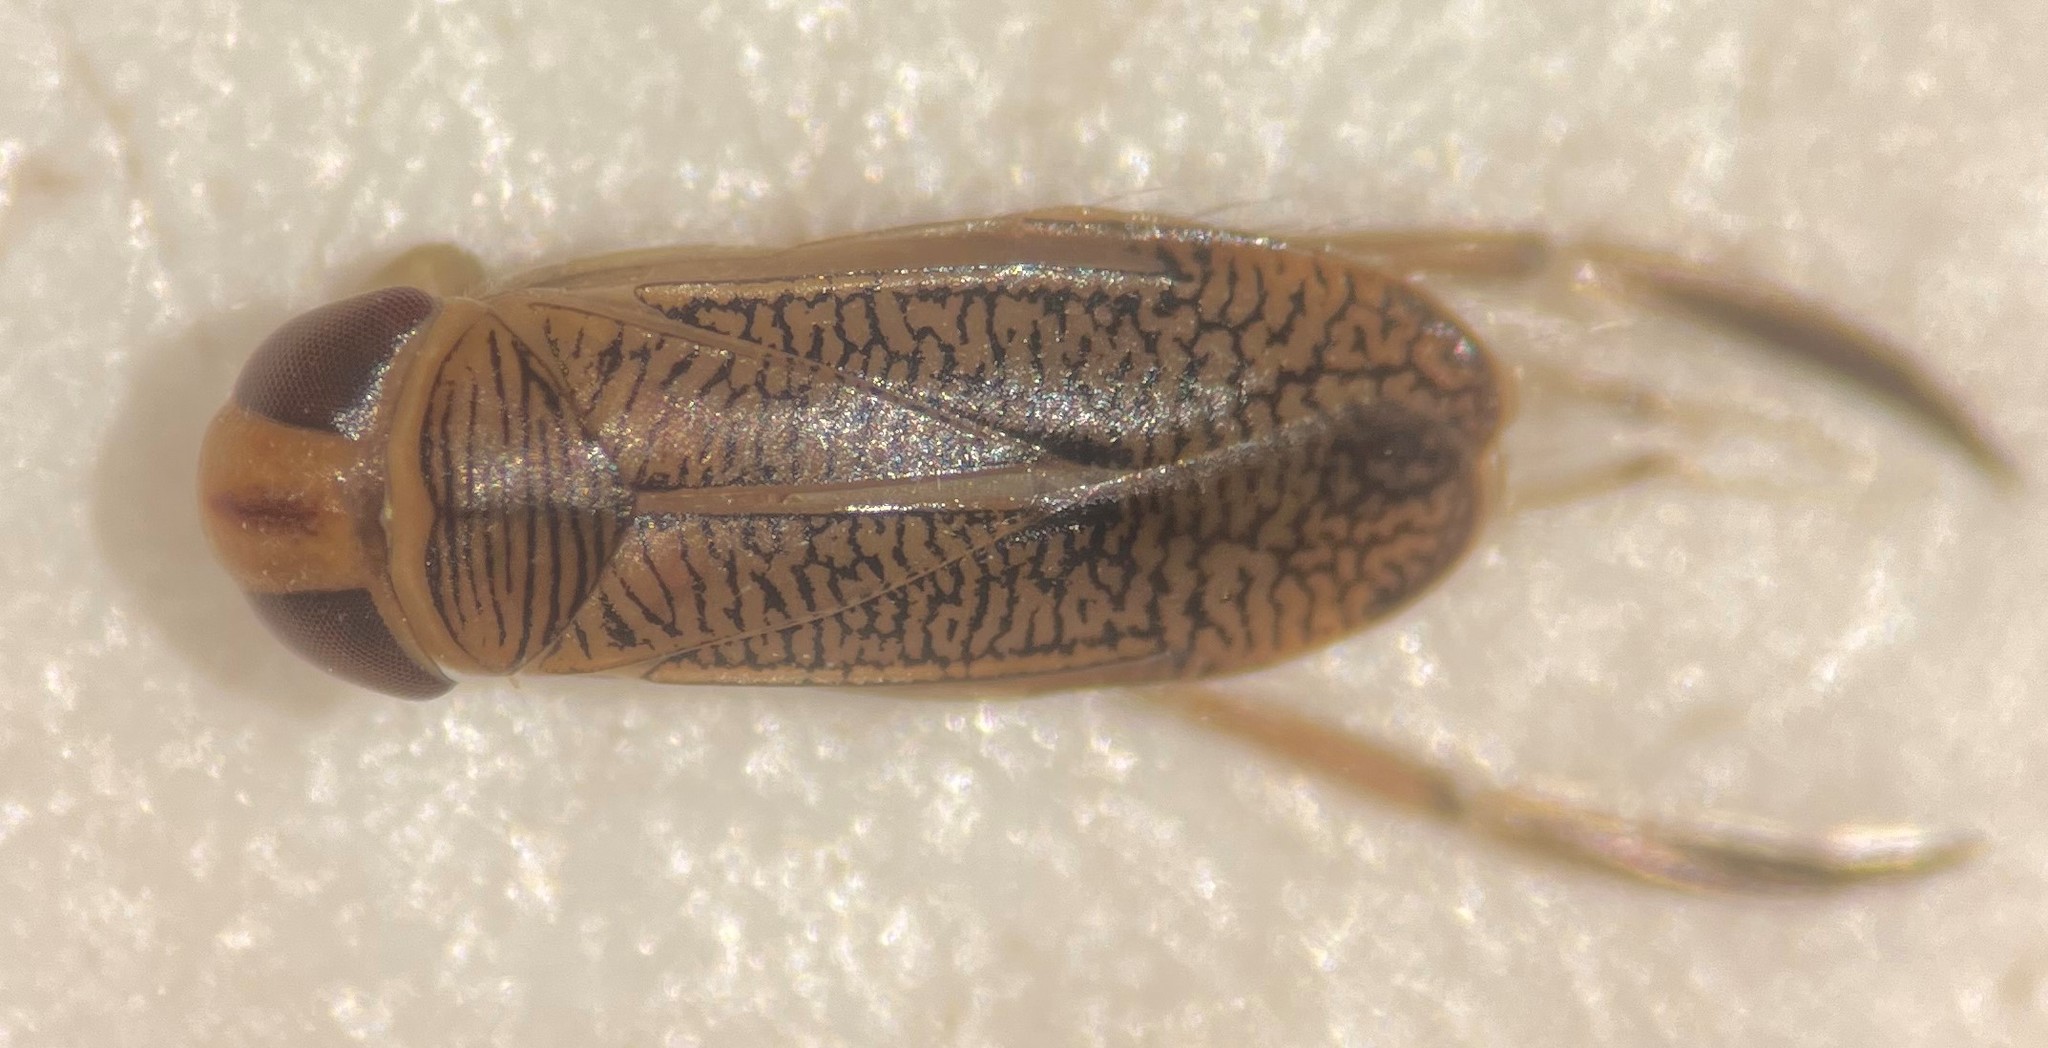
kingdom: Animalia
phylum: Arthropoda
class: Insecta
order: Hemiptera
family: Corixidae
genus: Trichocorixa
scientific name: Trichocorixa arizonensis
